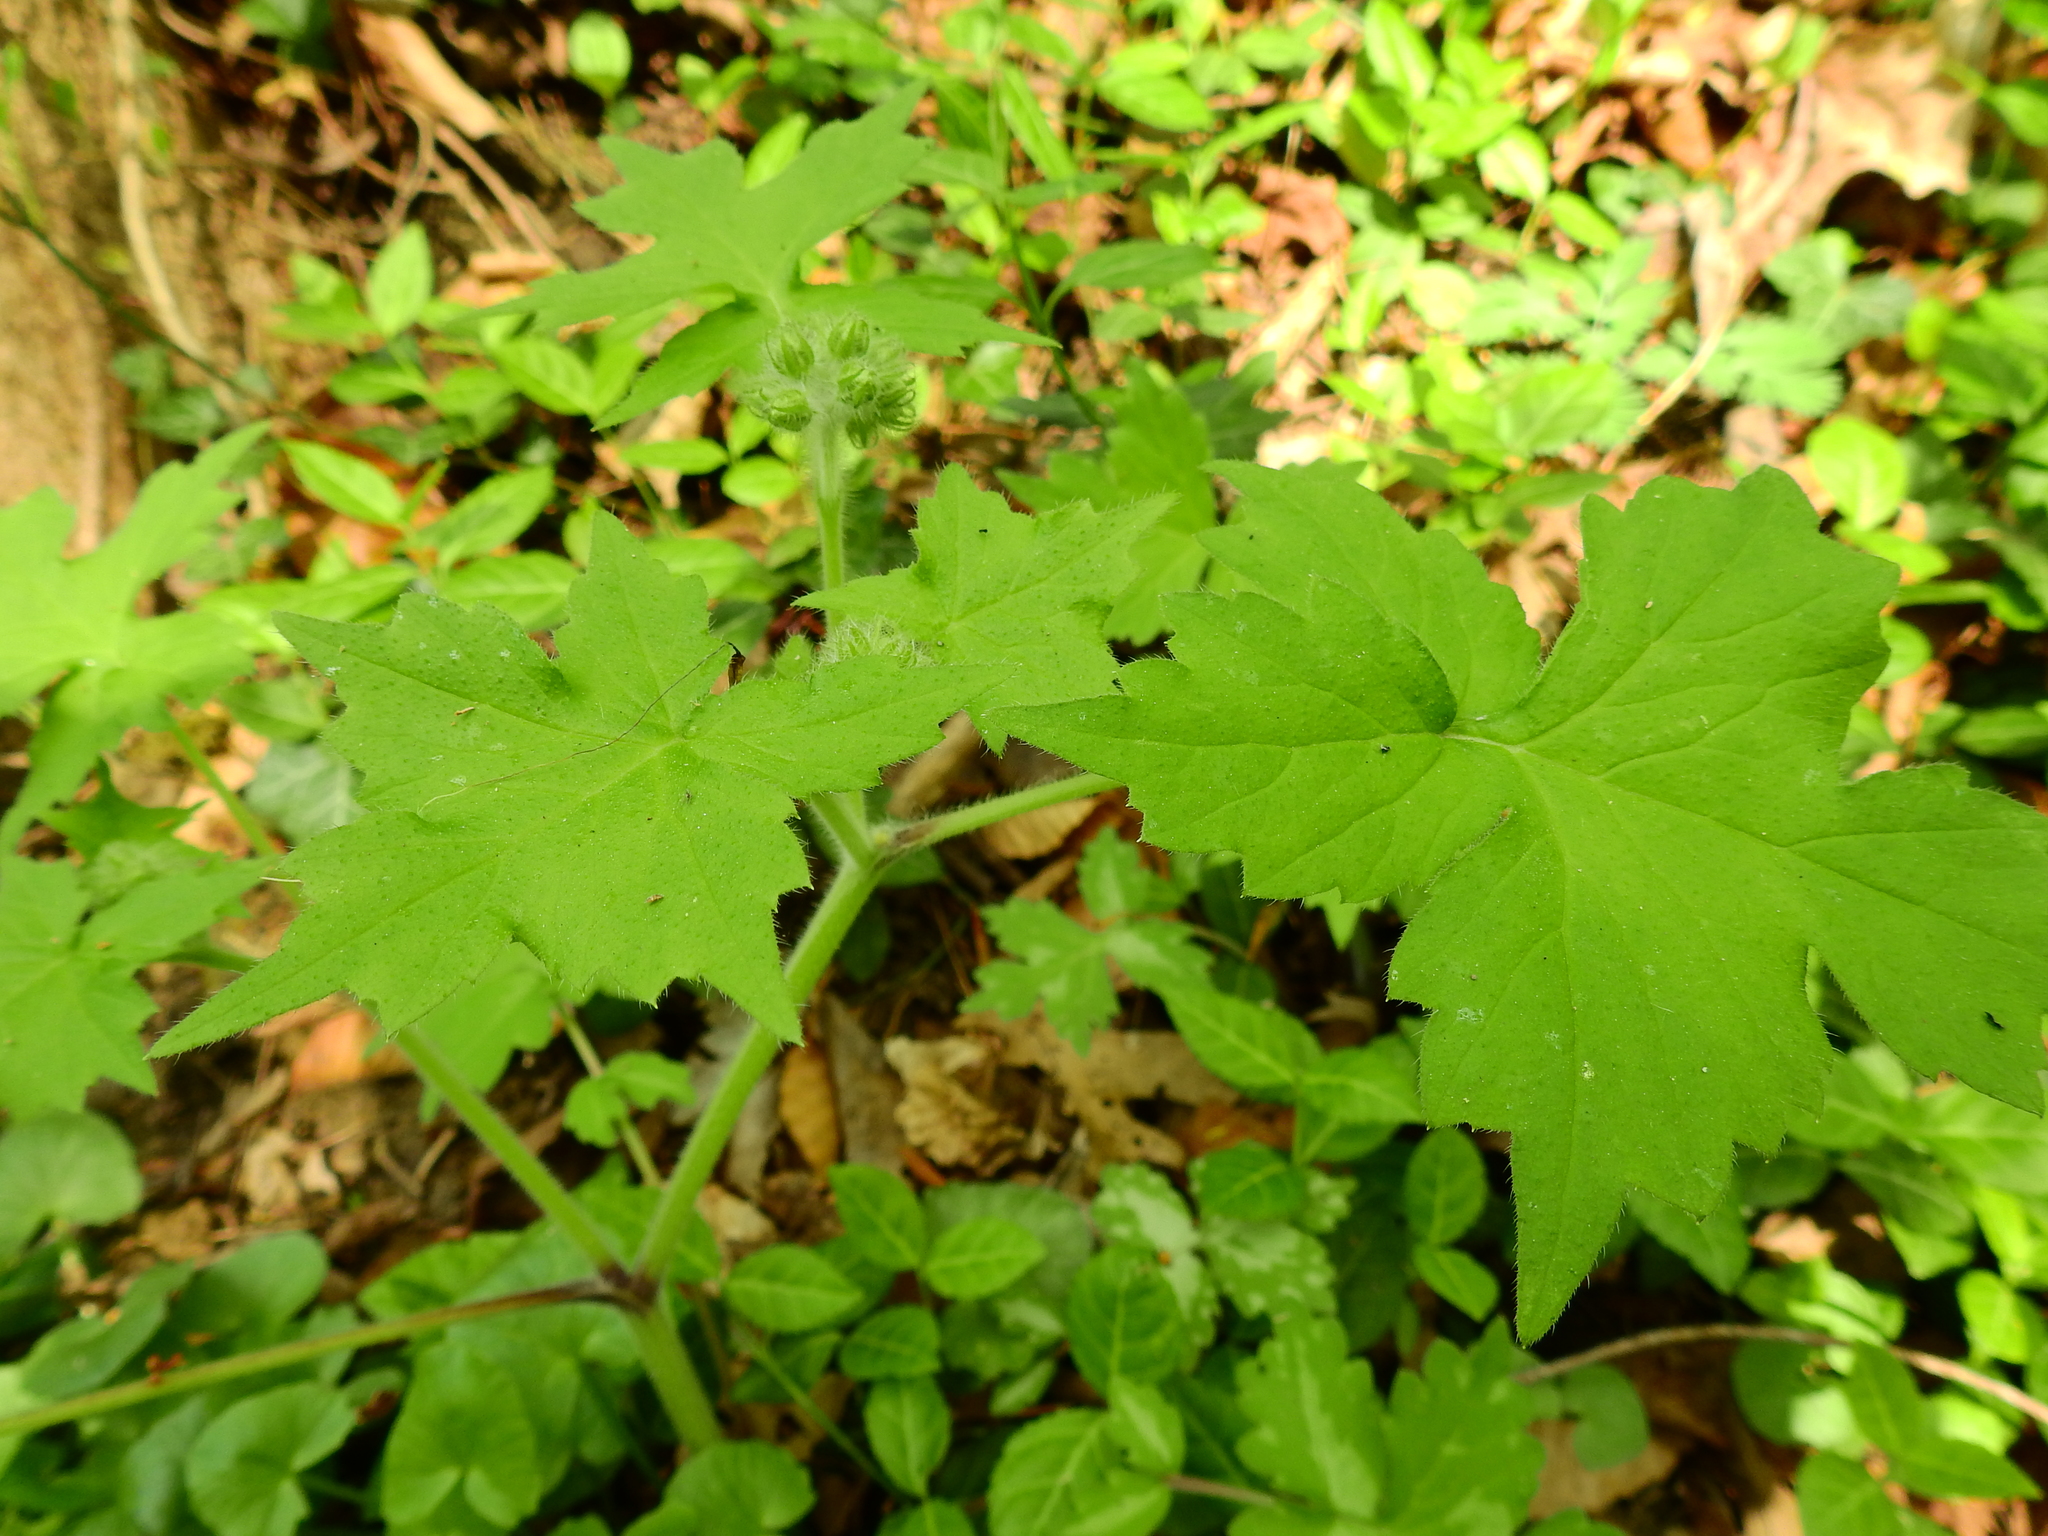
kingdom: Plantae
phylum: Tracheophyta
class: Magnoliopsida
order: Boraginales
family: Hydrophyllaceae
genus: Hydrophyllum
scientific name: Hydrophyllum appendiculatum
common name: Appendaged waterleaf
